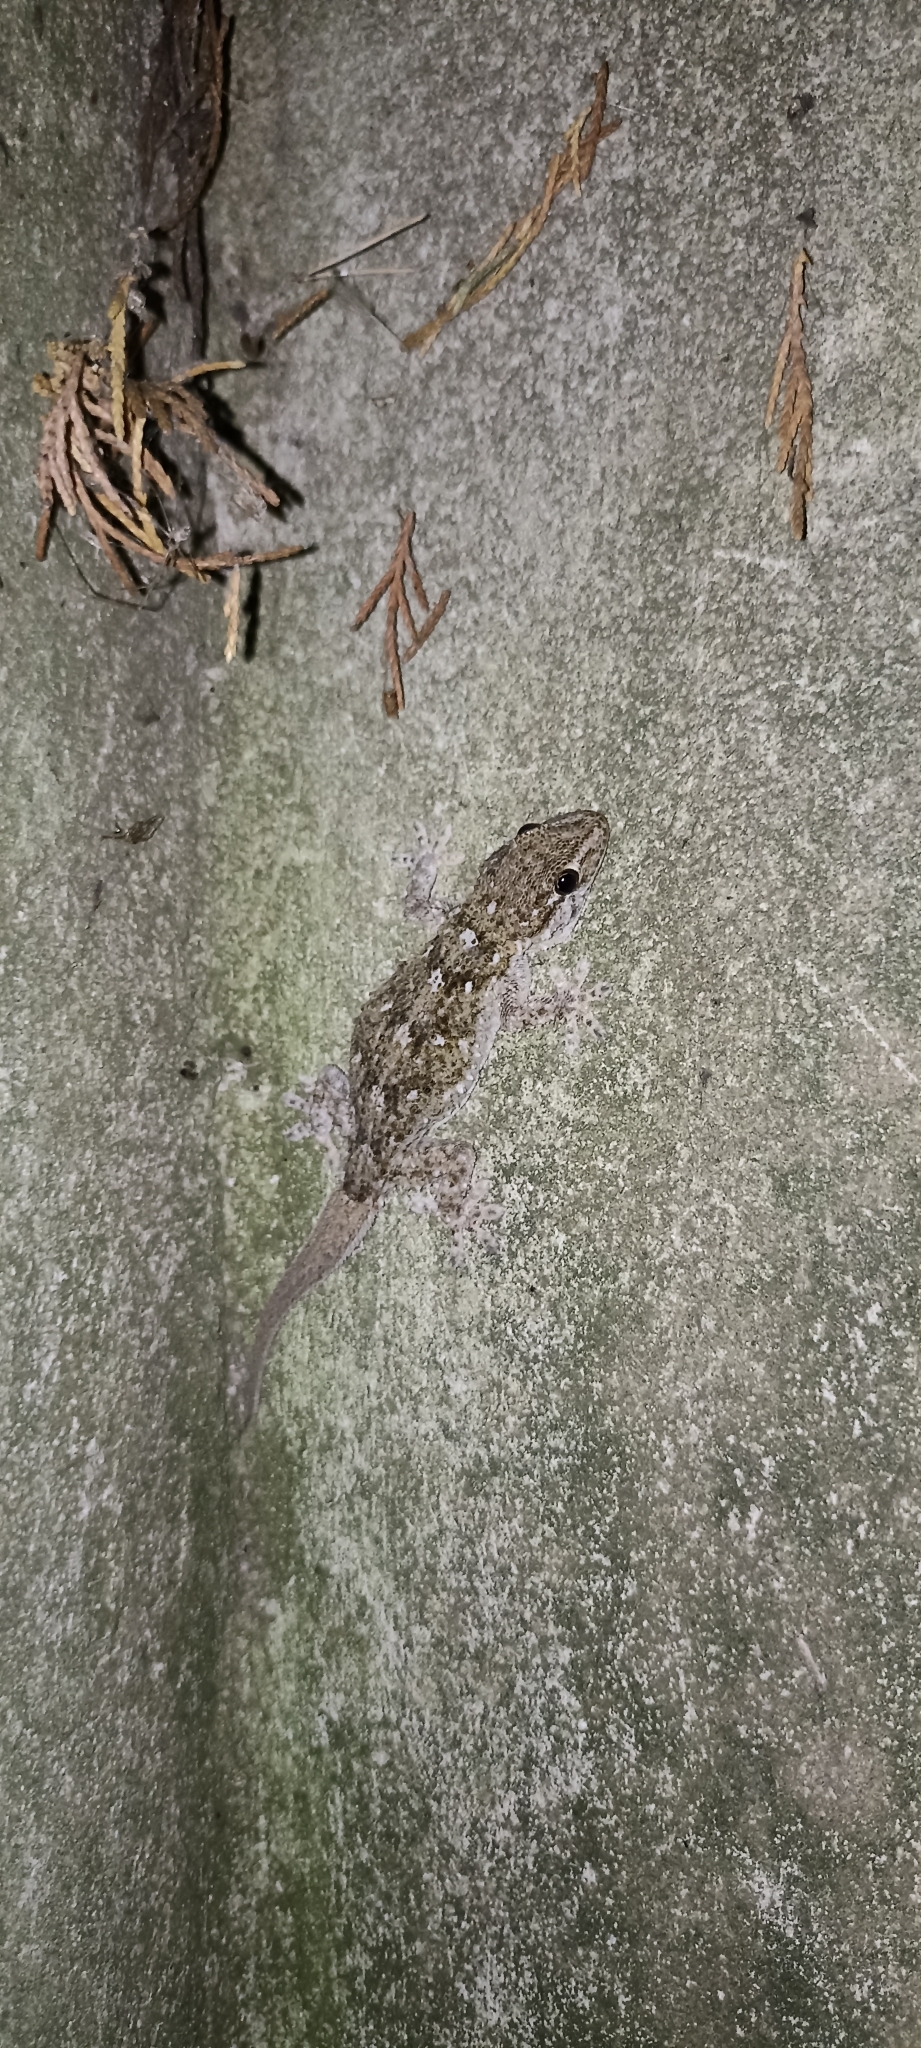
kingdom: Animalia
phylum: Chordata
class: Squamata
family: Phyllodactylidae
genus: Tarentola
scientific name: Tarentola mauritanica
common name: Moorish gecko
